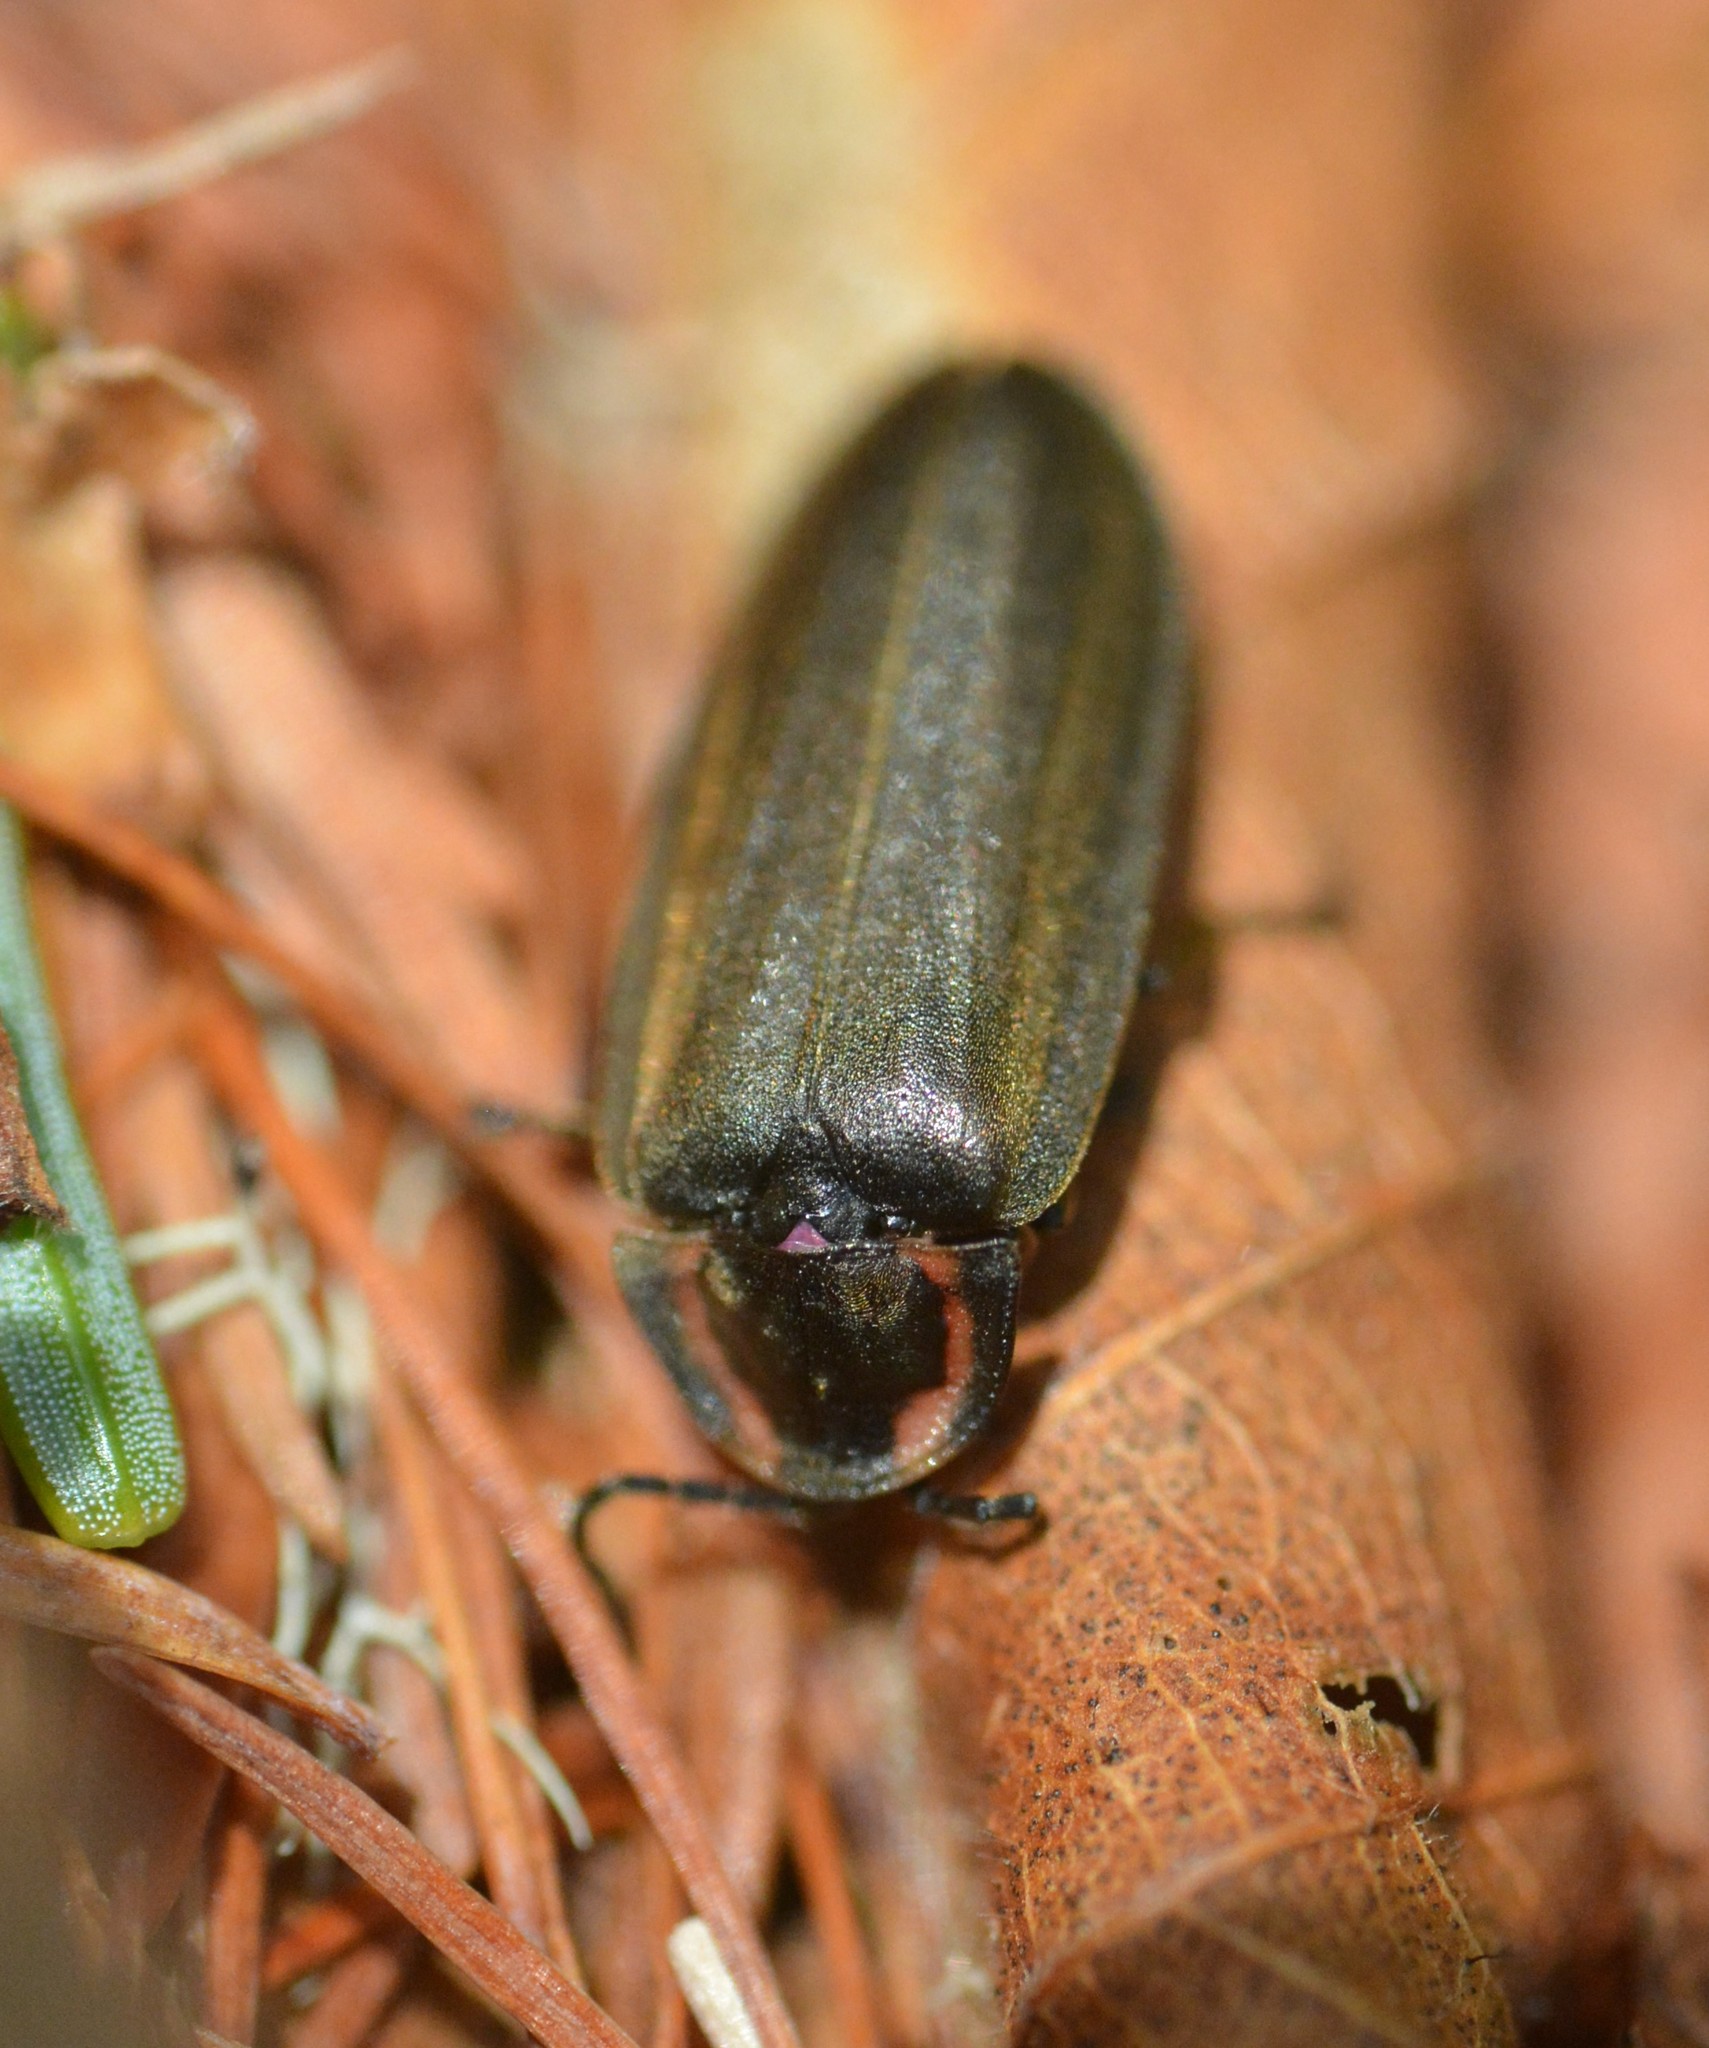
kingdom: Animalia
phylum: Arthropoda
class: Insecta
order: Coleoptera
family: Lampyridae
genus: Photinus
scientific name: Photinus corrusca
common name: Winter firefly
